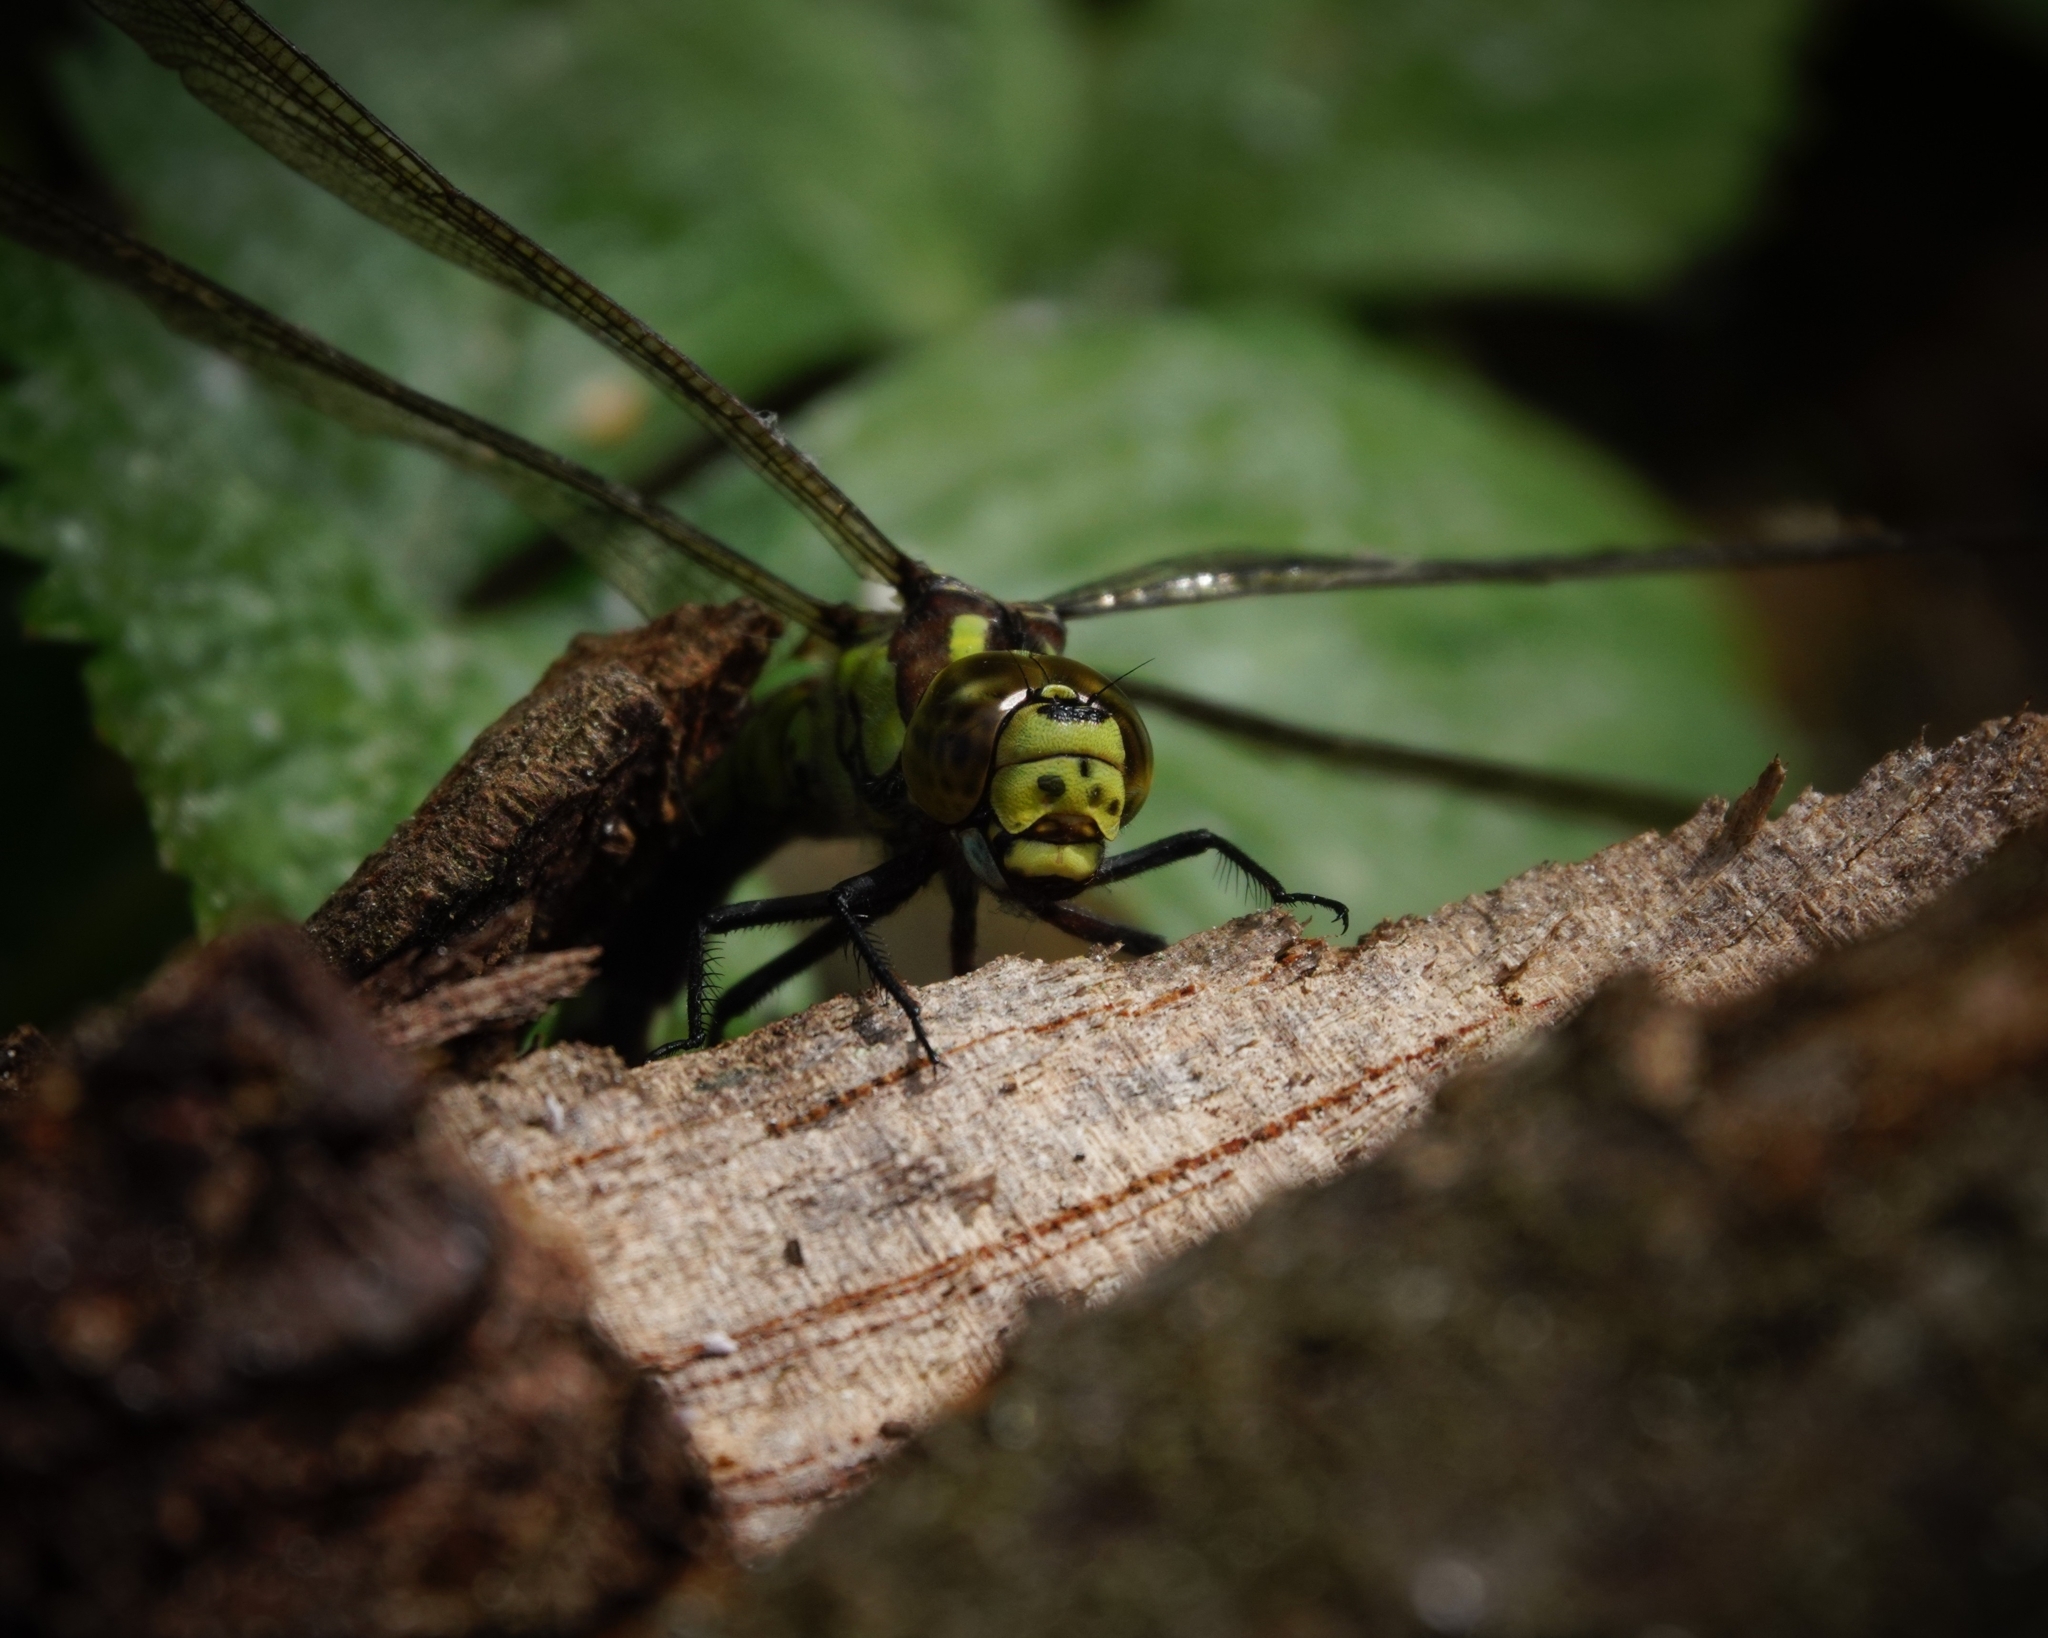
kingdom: Animalia
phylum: Arthropoda
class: Insecta
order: Odonata
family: Aeshnidae
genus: Aeshna
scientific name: Aeshna cyanea
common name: Southern hawker
